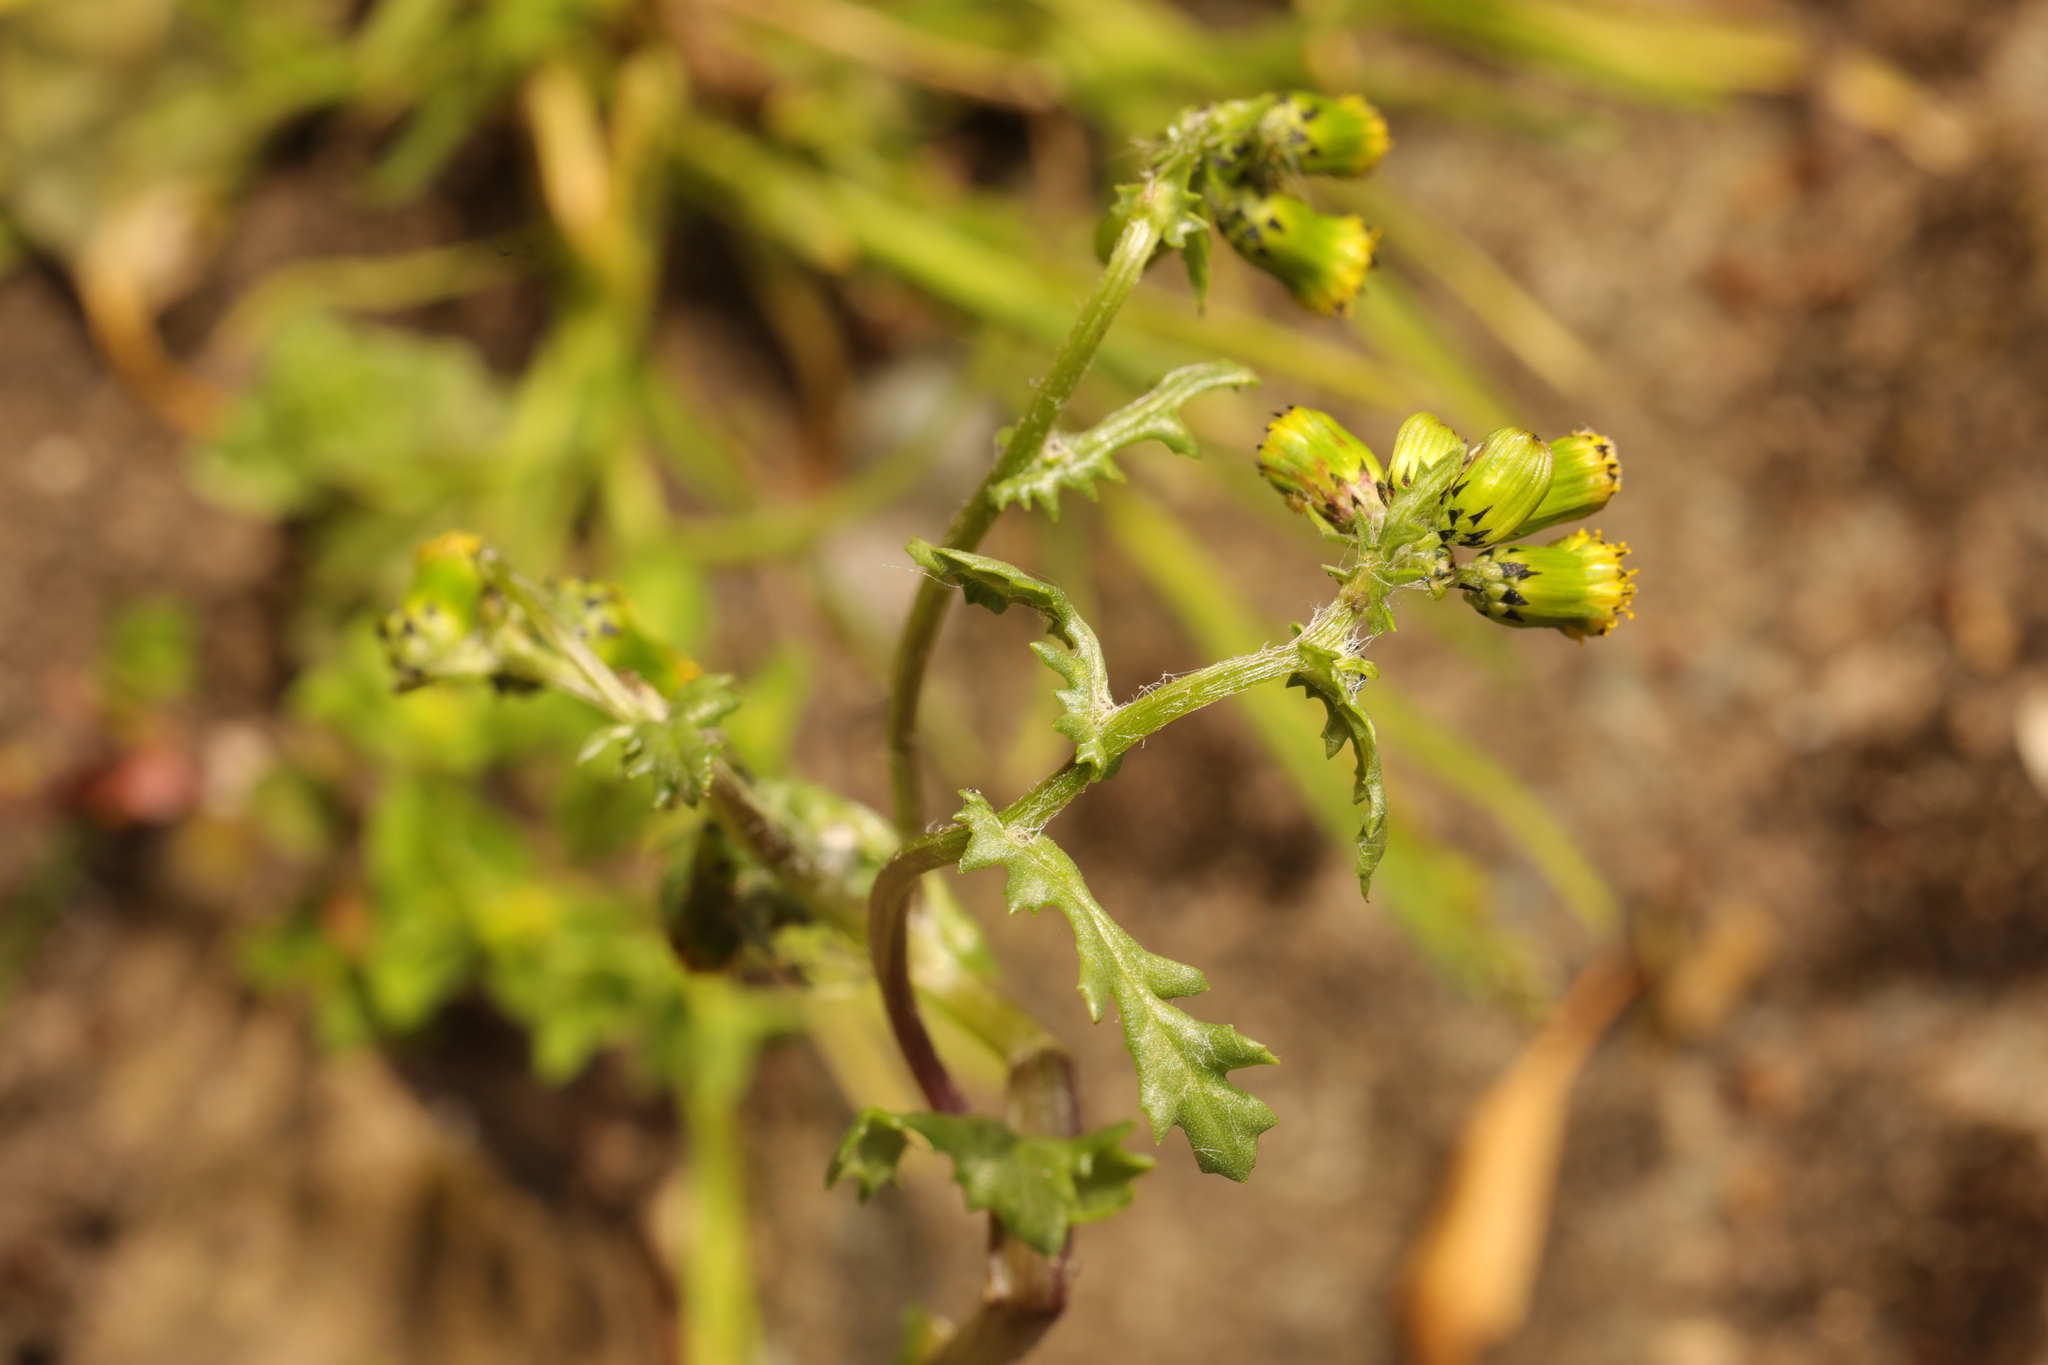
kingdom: Plantae
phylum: Tracheophyta
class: Magnoliopsida
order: Asterales
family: Asteraceae
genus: Senecio
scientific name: Senecio vulgaris
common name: Old-man-in-the-spring
